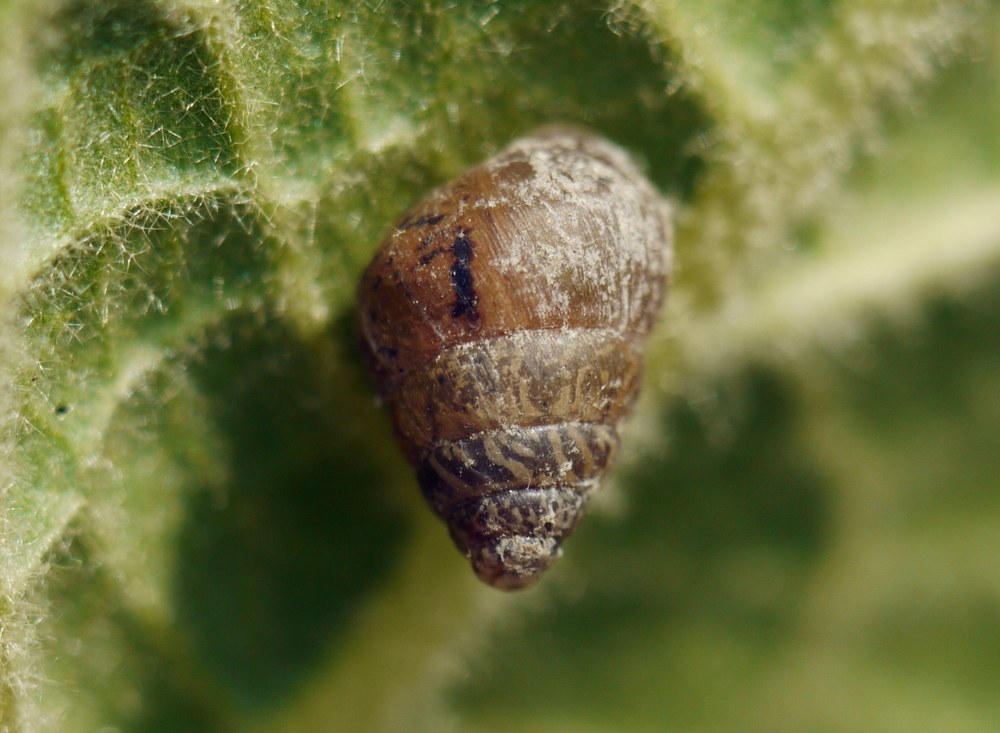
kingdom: Animalia
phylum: Mollusca
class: Gastropoda
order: Stylommatophora
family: Enidae
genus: Chondrula
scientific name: Chondrula tridens
